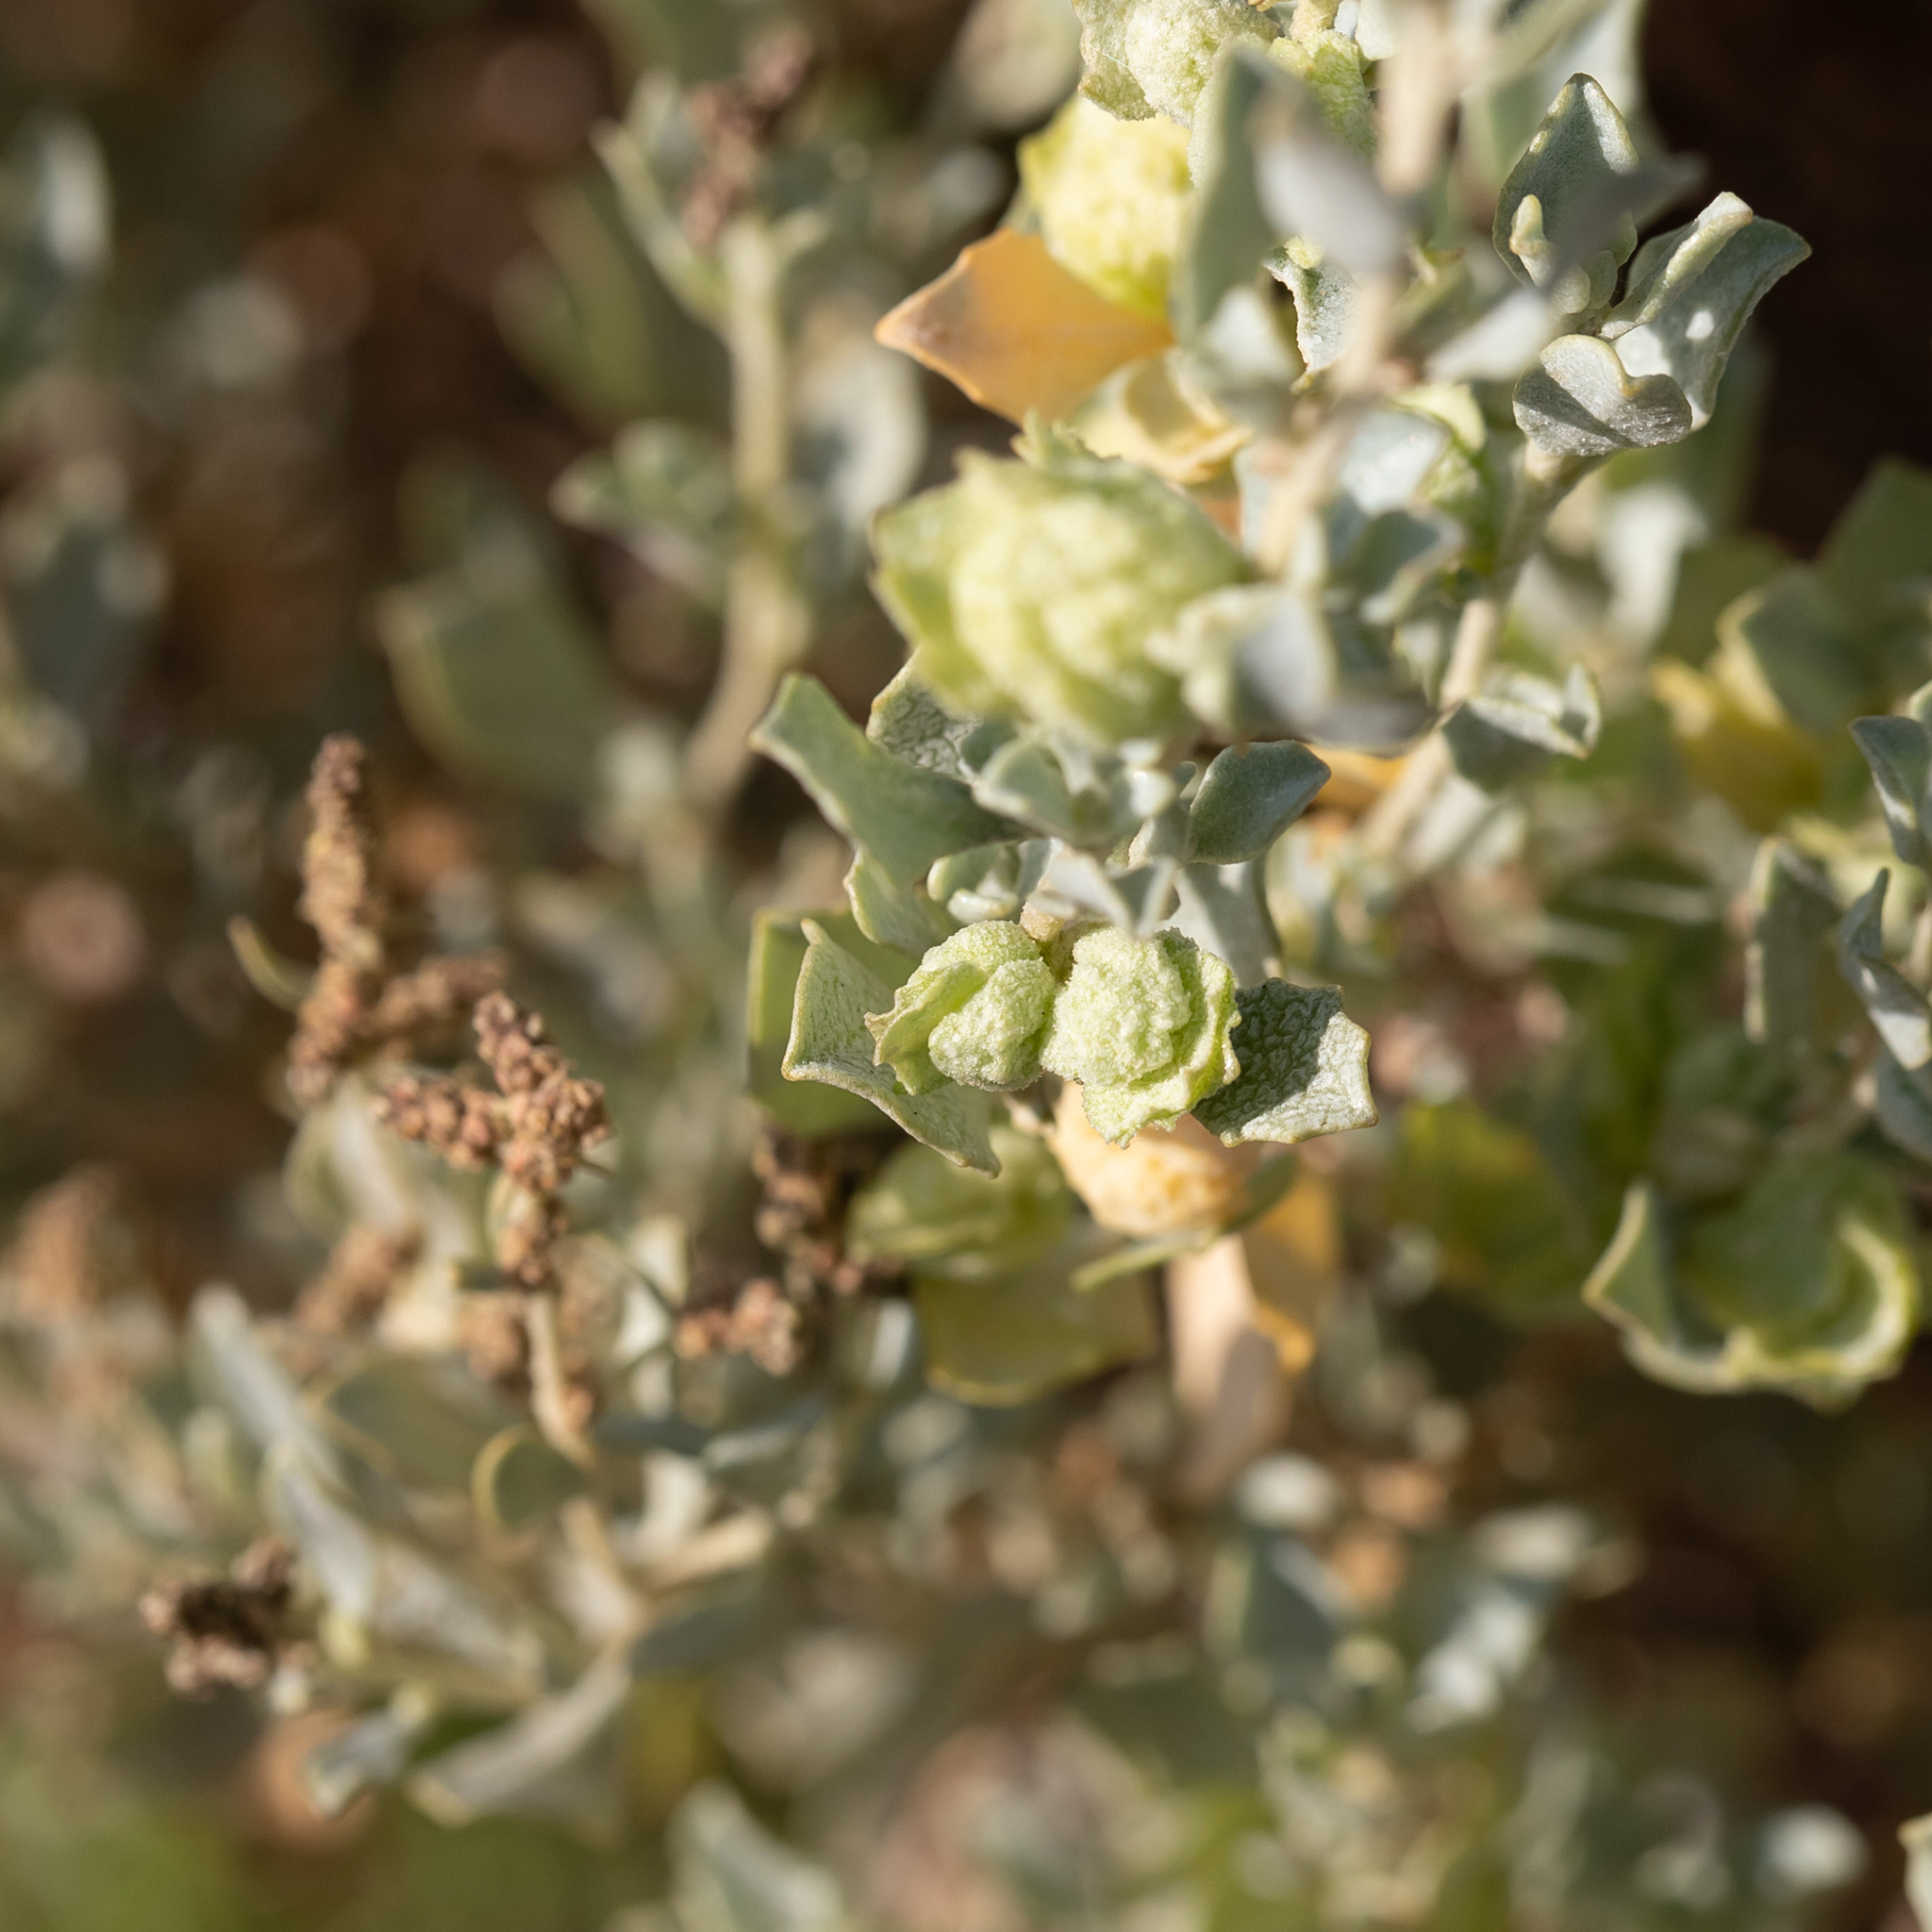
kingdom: Plantae
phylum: Tracheophyta
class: Magnoliopsida
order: Caryophyllales
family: Amaranthaceae
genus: Atriplex
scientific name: Atriplex vesicaria
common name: Aboriginal saltbush
